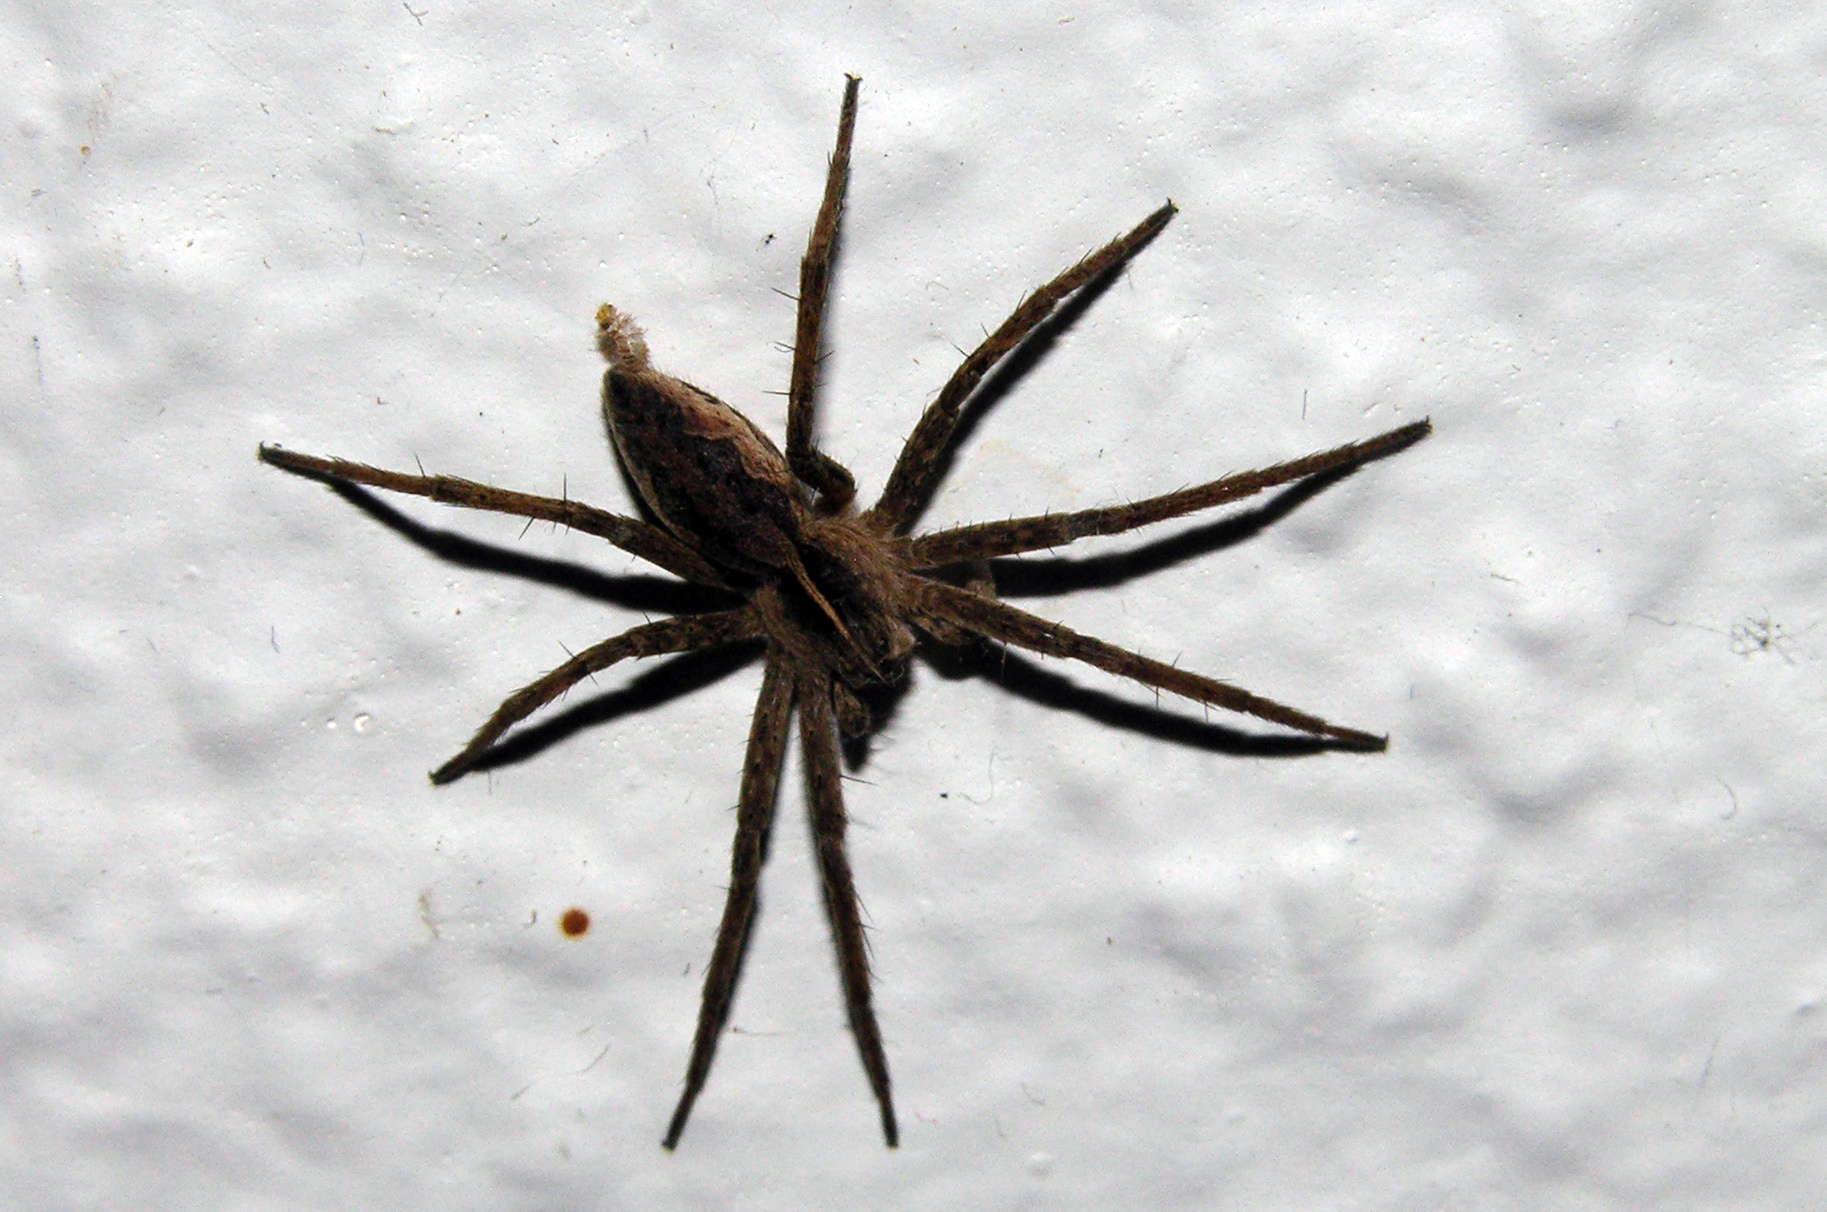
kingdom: Animalia
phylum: Arthropoda
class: Arachnida
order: Araneae
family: Pisauridae
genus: Pisaura
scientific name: Pisaura mirabilis
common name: Tent spider
